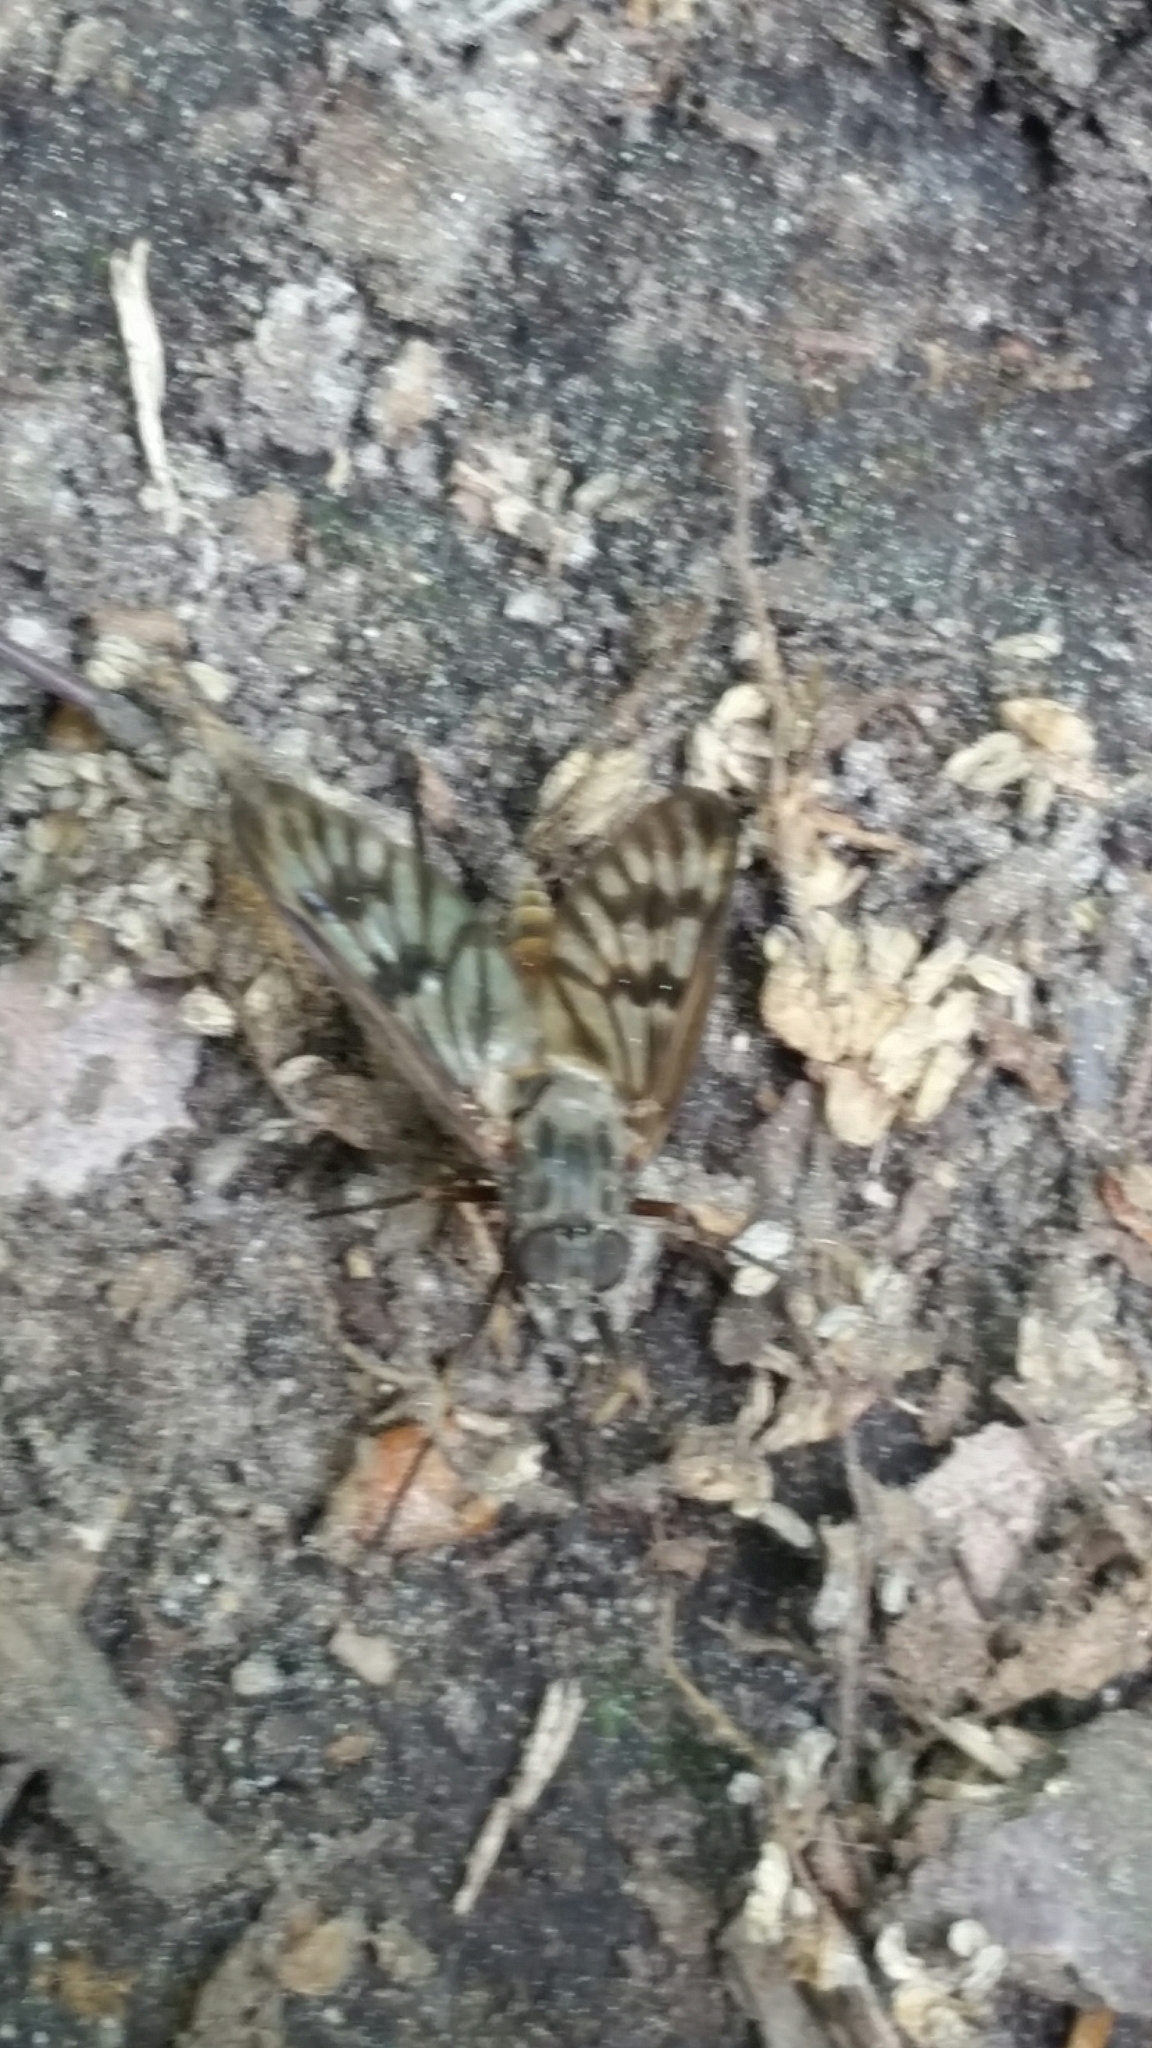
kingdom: Animalia
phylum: Arthropoda
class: Insecta
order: Diptera
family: Rhagionidae
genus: Rhagio
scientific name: Rhagio mystaceus
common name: Common snipe fly
